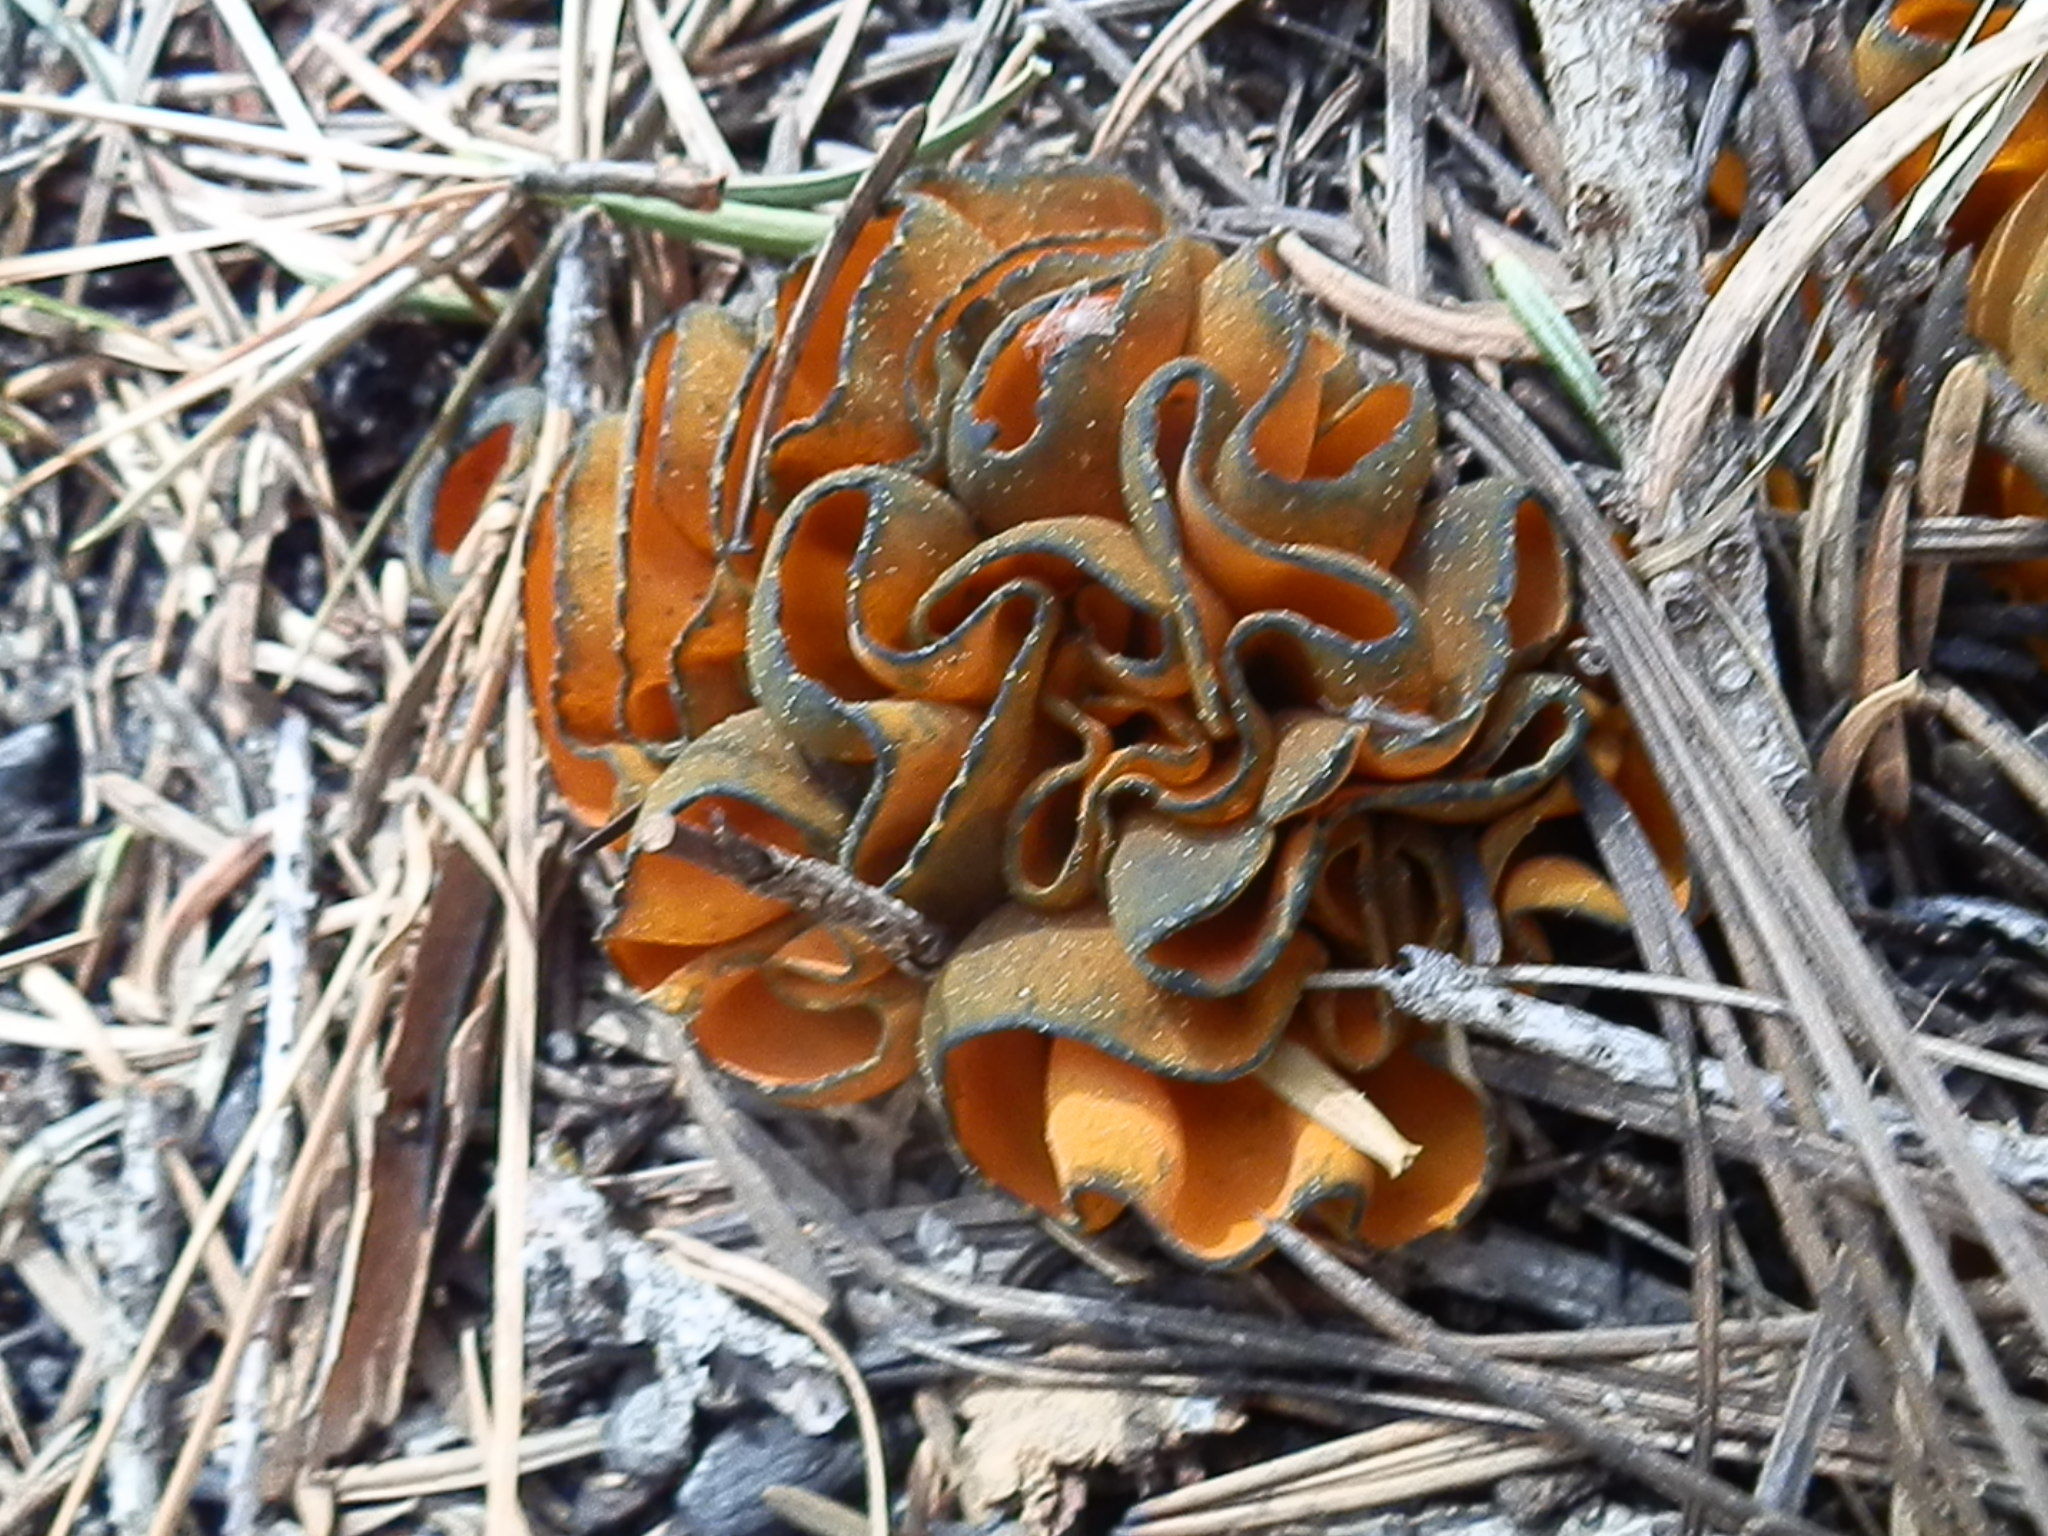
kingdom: Fungi
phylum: Ascomycota
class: Pezizomycetes
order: Pezizales
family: Caloscyphaceae
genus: Caloscypha
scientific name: Caloscypha fulgens
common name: Golden cup
